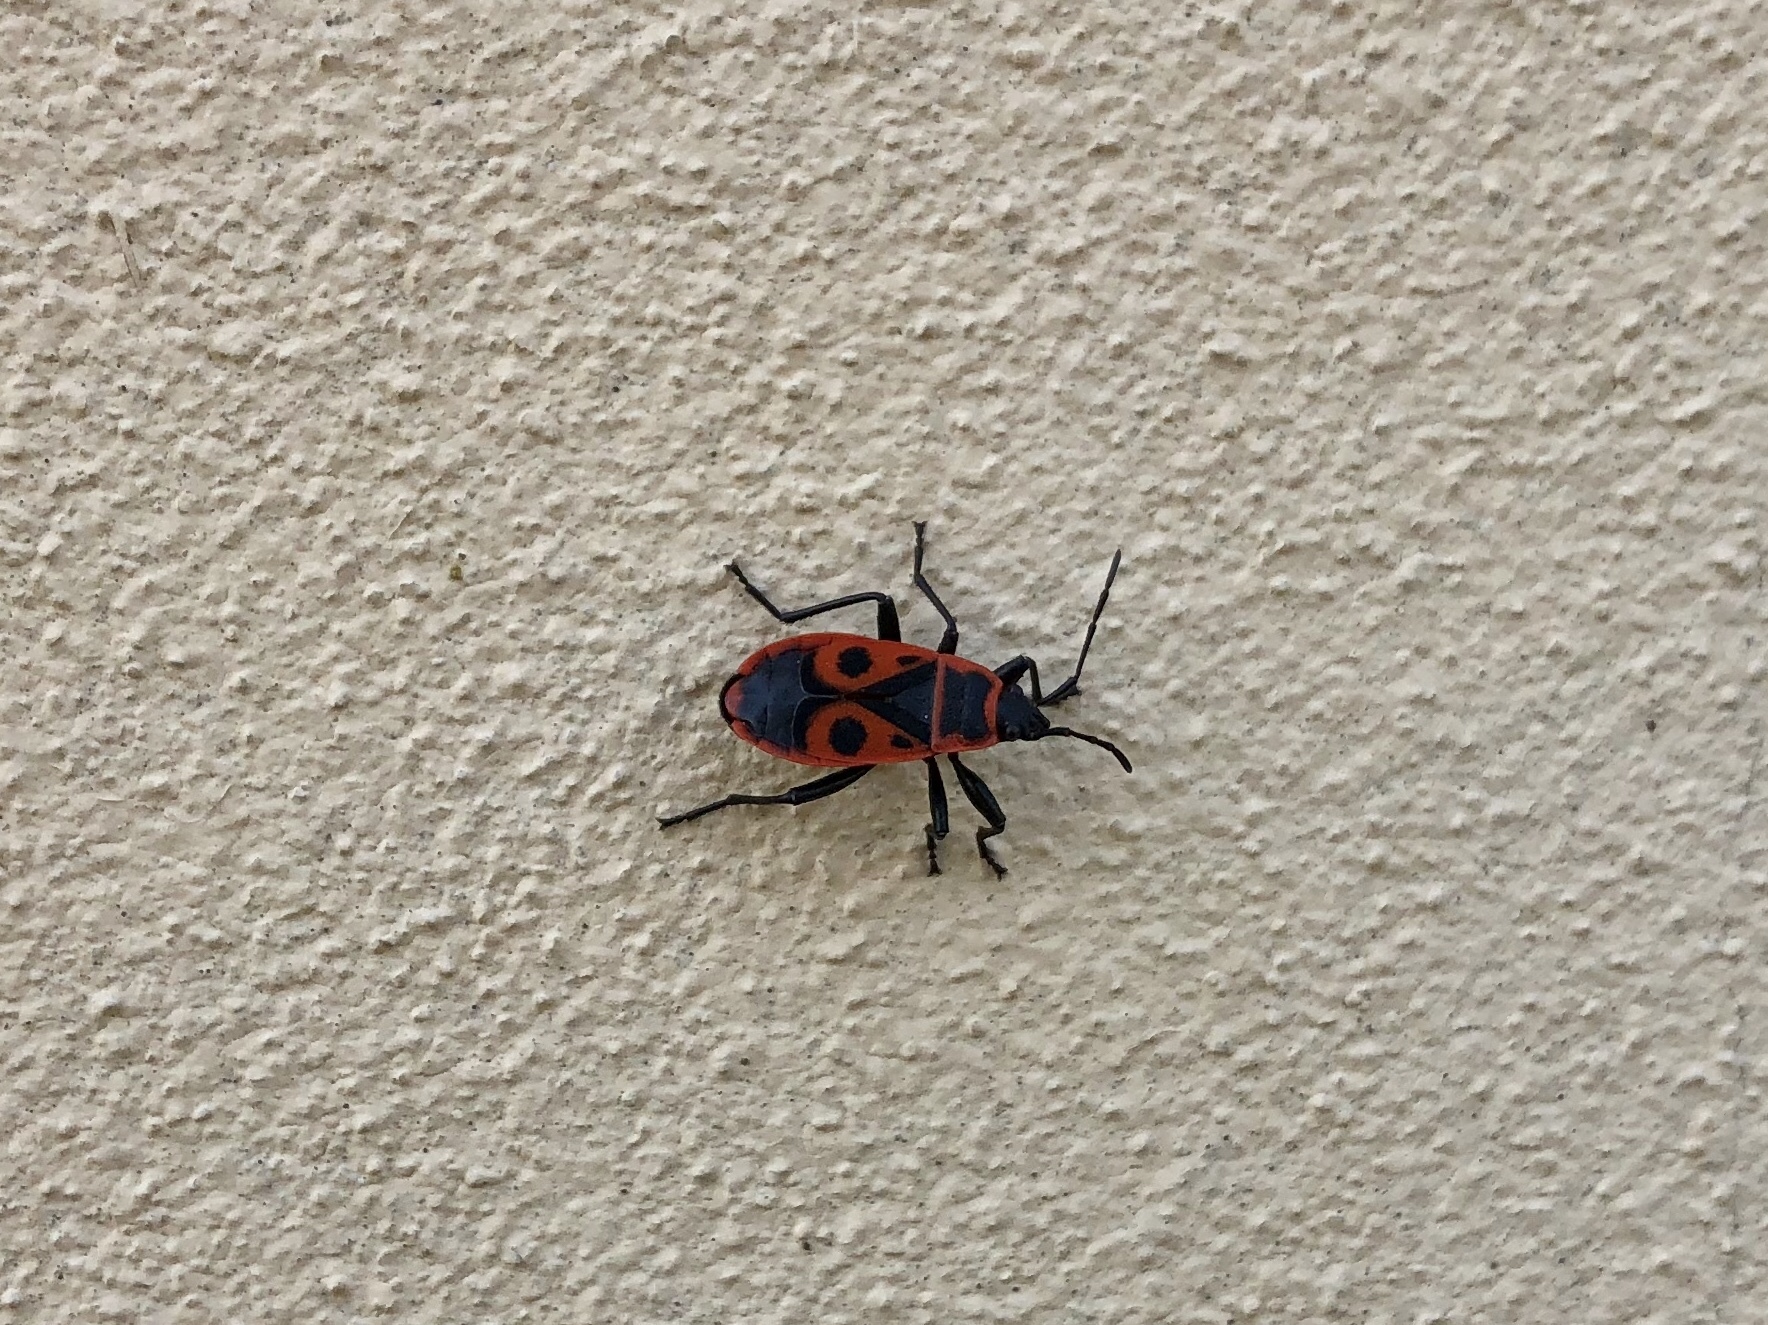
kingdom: Animalia
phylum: Arthropoda
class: Insecta
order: Hemiptera
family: Pyrrhocoridae
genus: Pyrrhocoris
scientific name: Pyrrhocoris apterus
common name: Firebug
